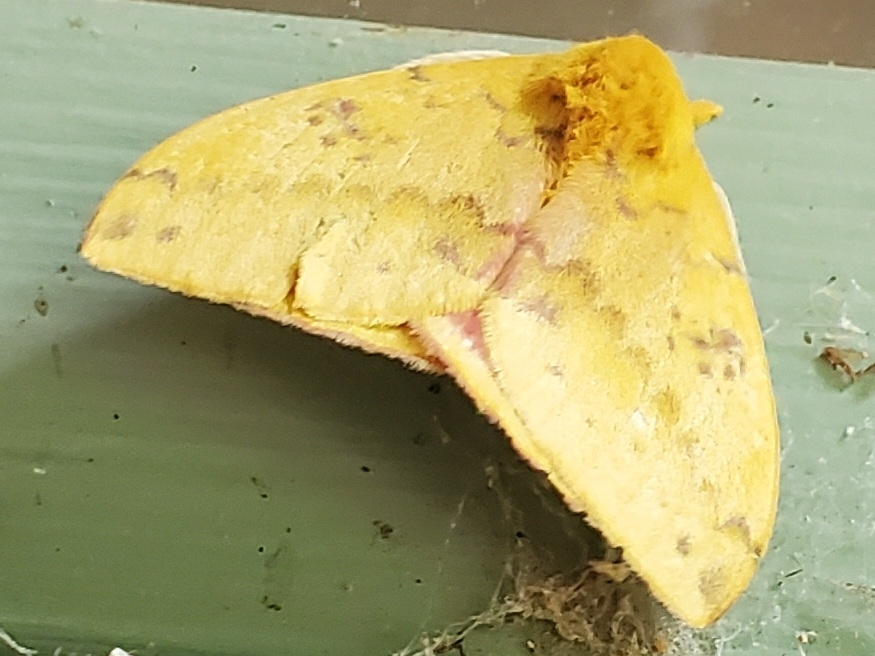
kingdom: Animalia
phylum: Arthropoda
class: Insecta
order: Lepidoptera
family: Saturniidae
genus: Automeris
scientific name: Automeris io
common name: Io moth
